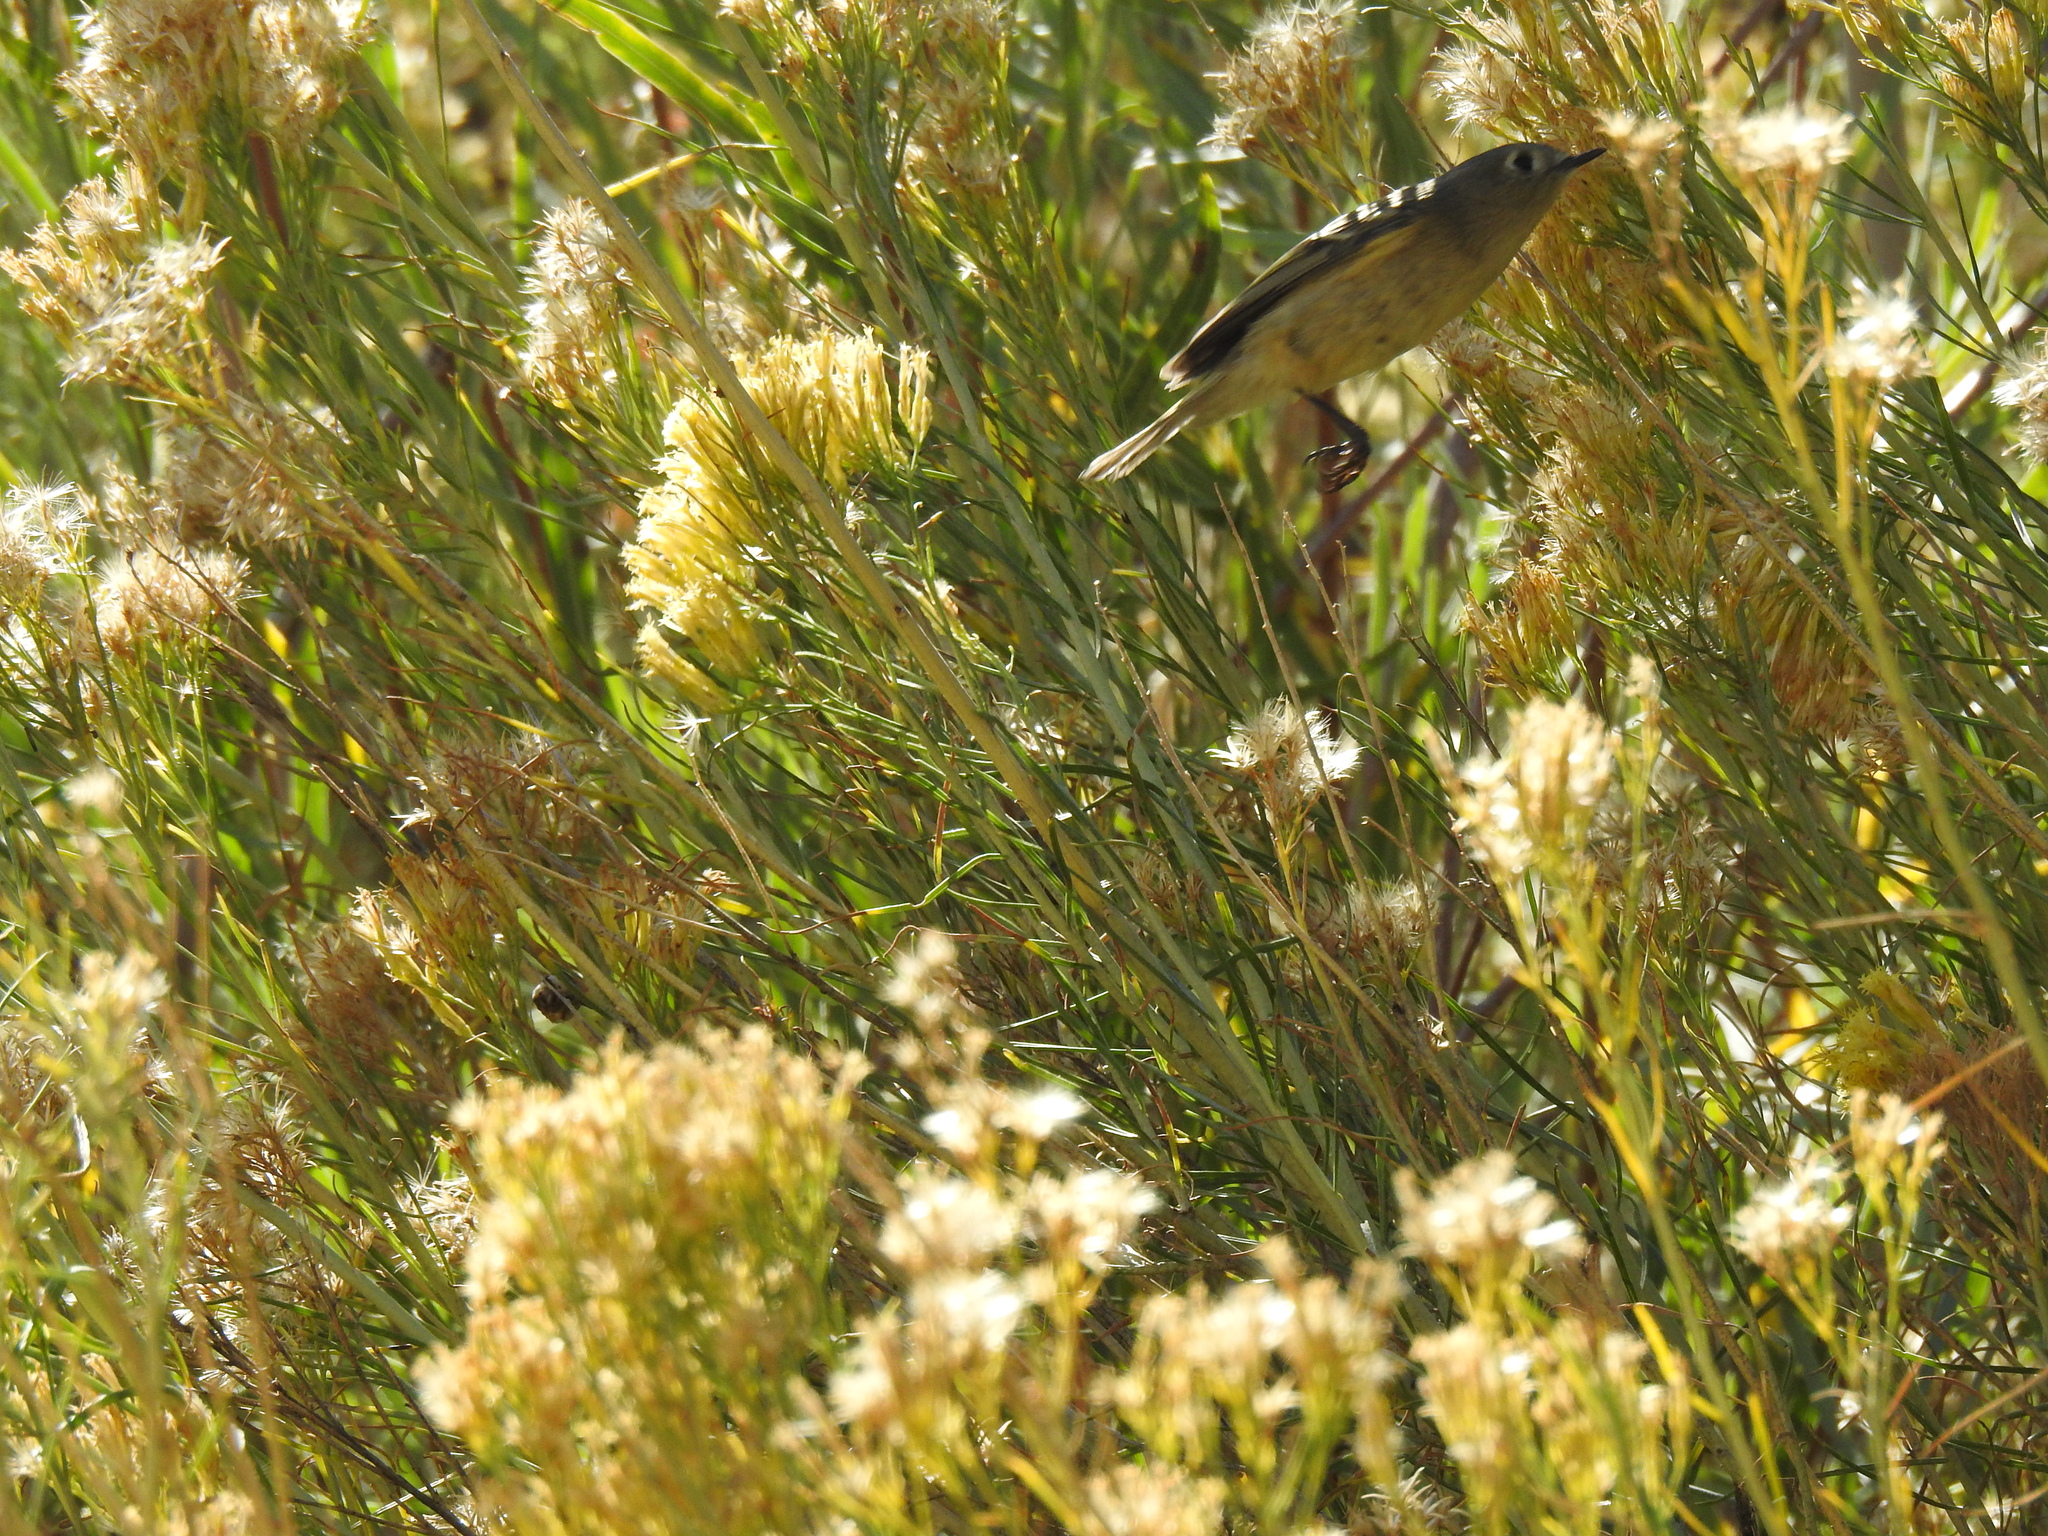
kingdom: Animalia
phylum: Chordata
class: Aves
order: Passeriformes
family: Regulidae
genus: Regulus
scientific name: Regulus calendula
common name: Ruby-crowned kinglet
